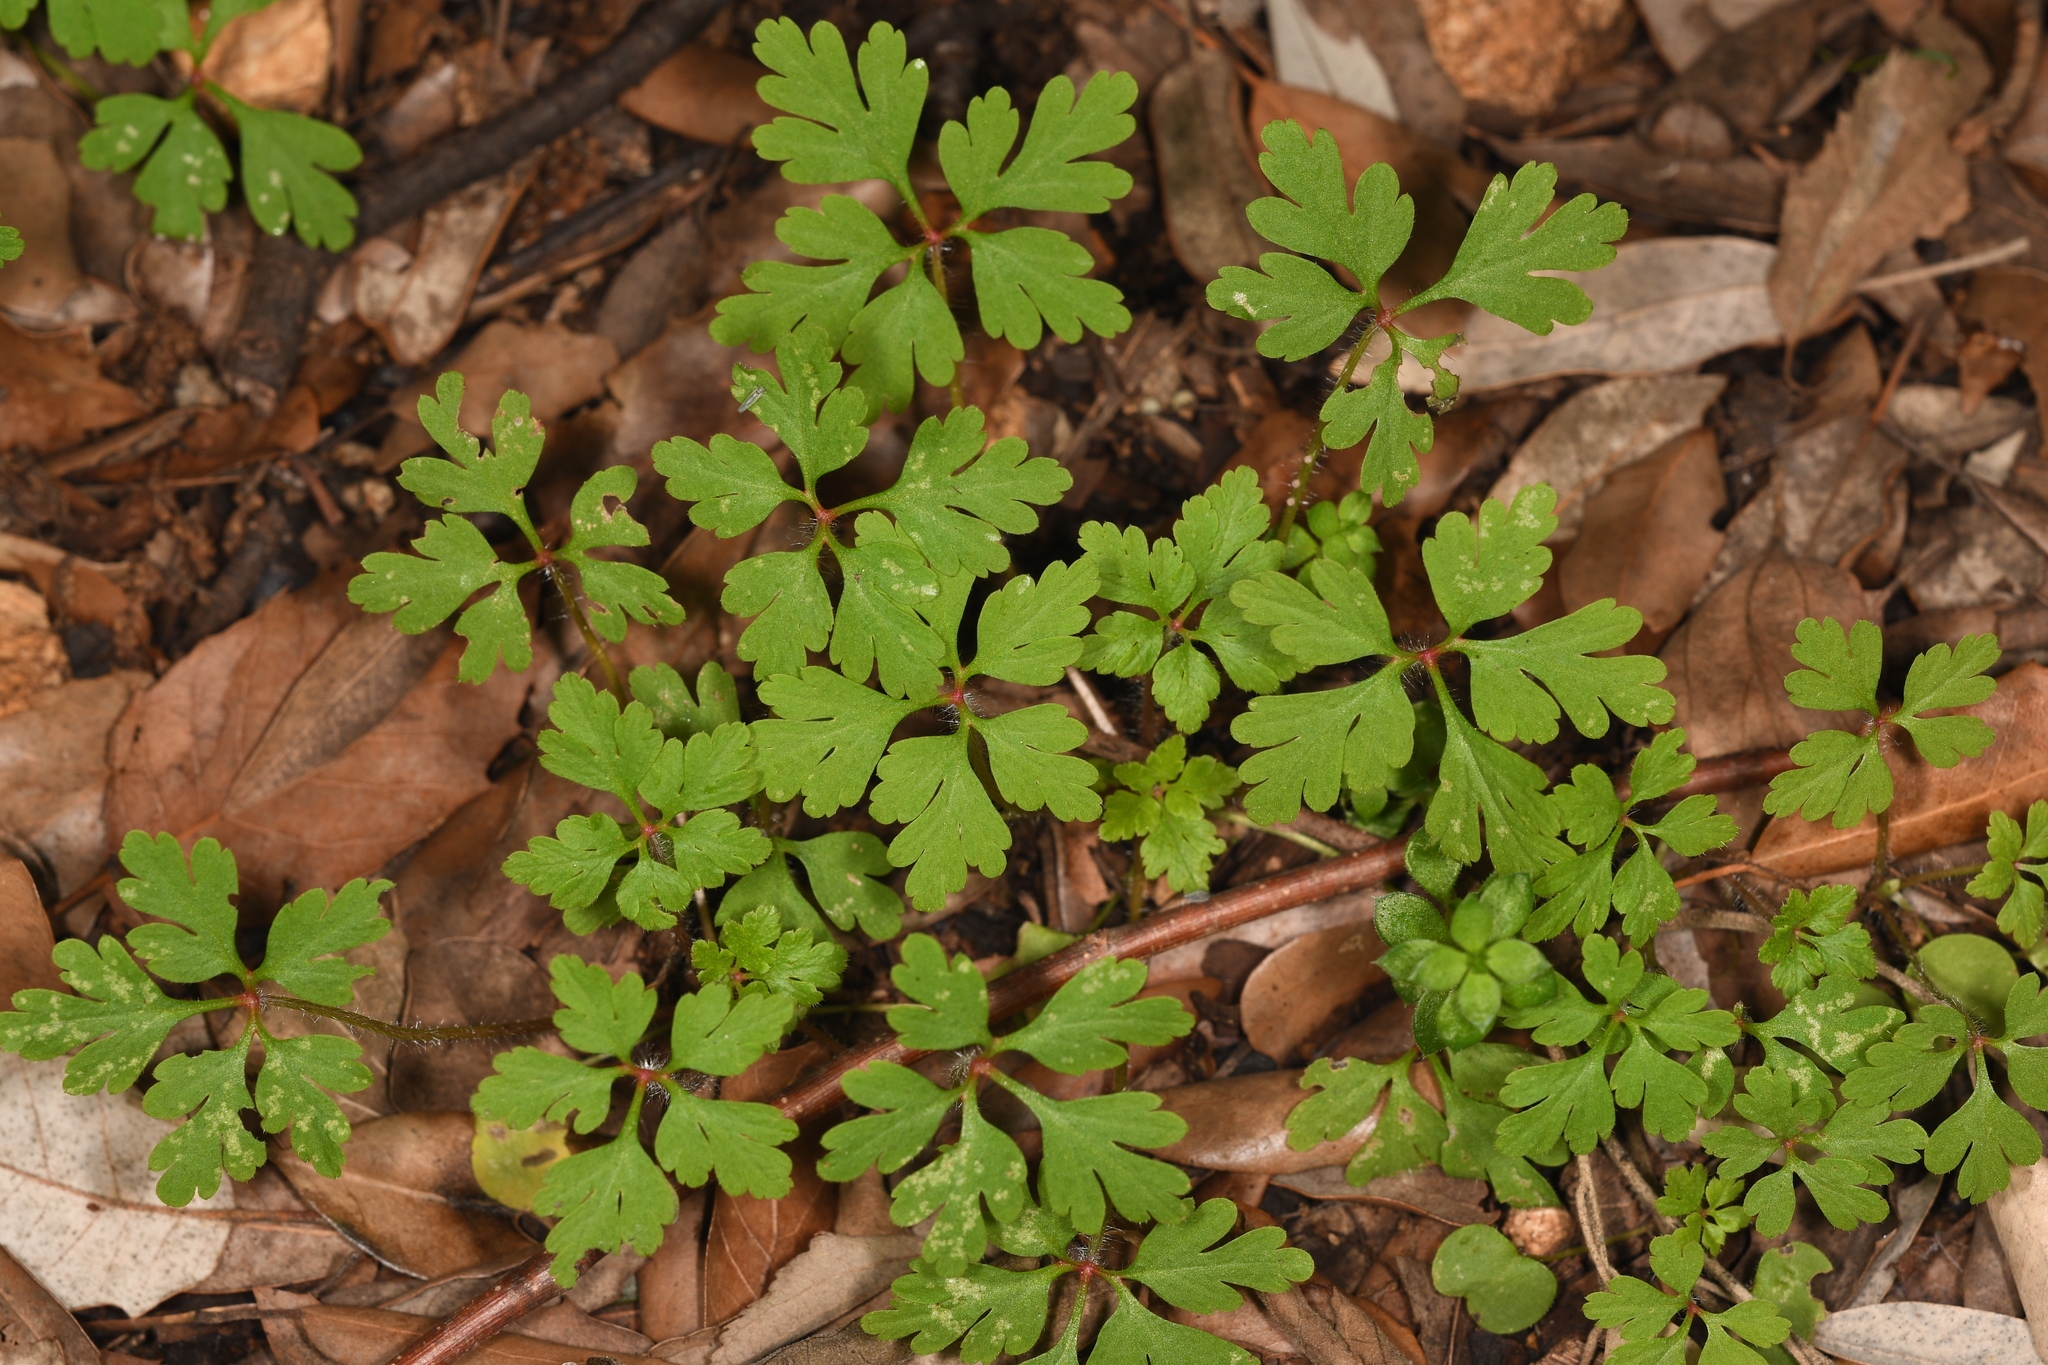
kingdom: Plantae
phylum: Tracheophyta
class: Magnoliopsida
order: Geraniales
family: Geraniaceae
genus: Geranium
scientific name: Geranium robertianum
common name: Herb-robert
